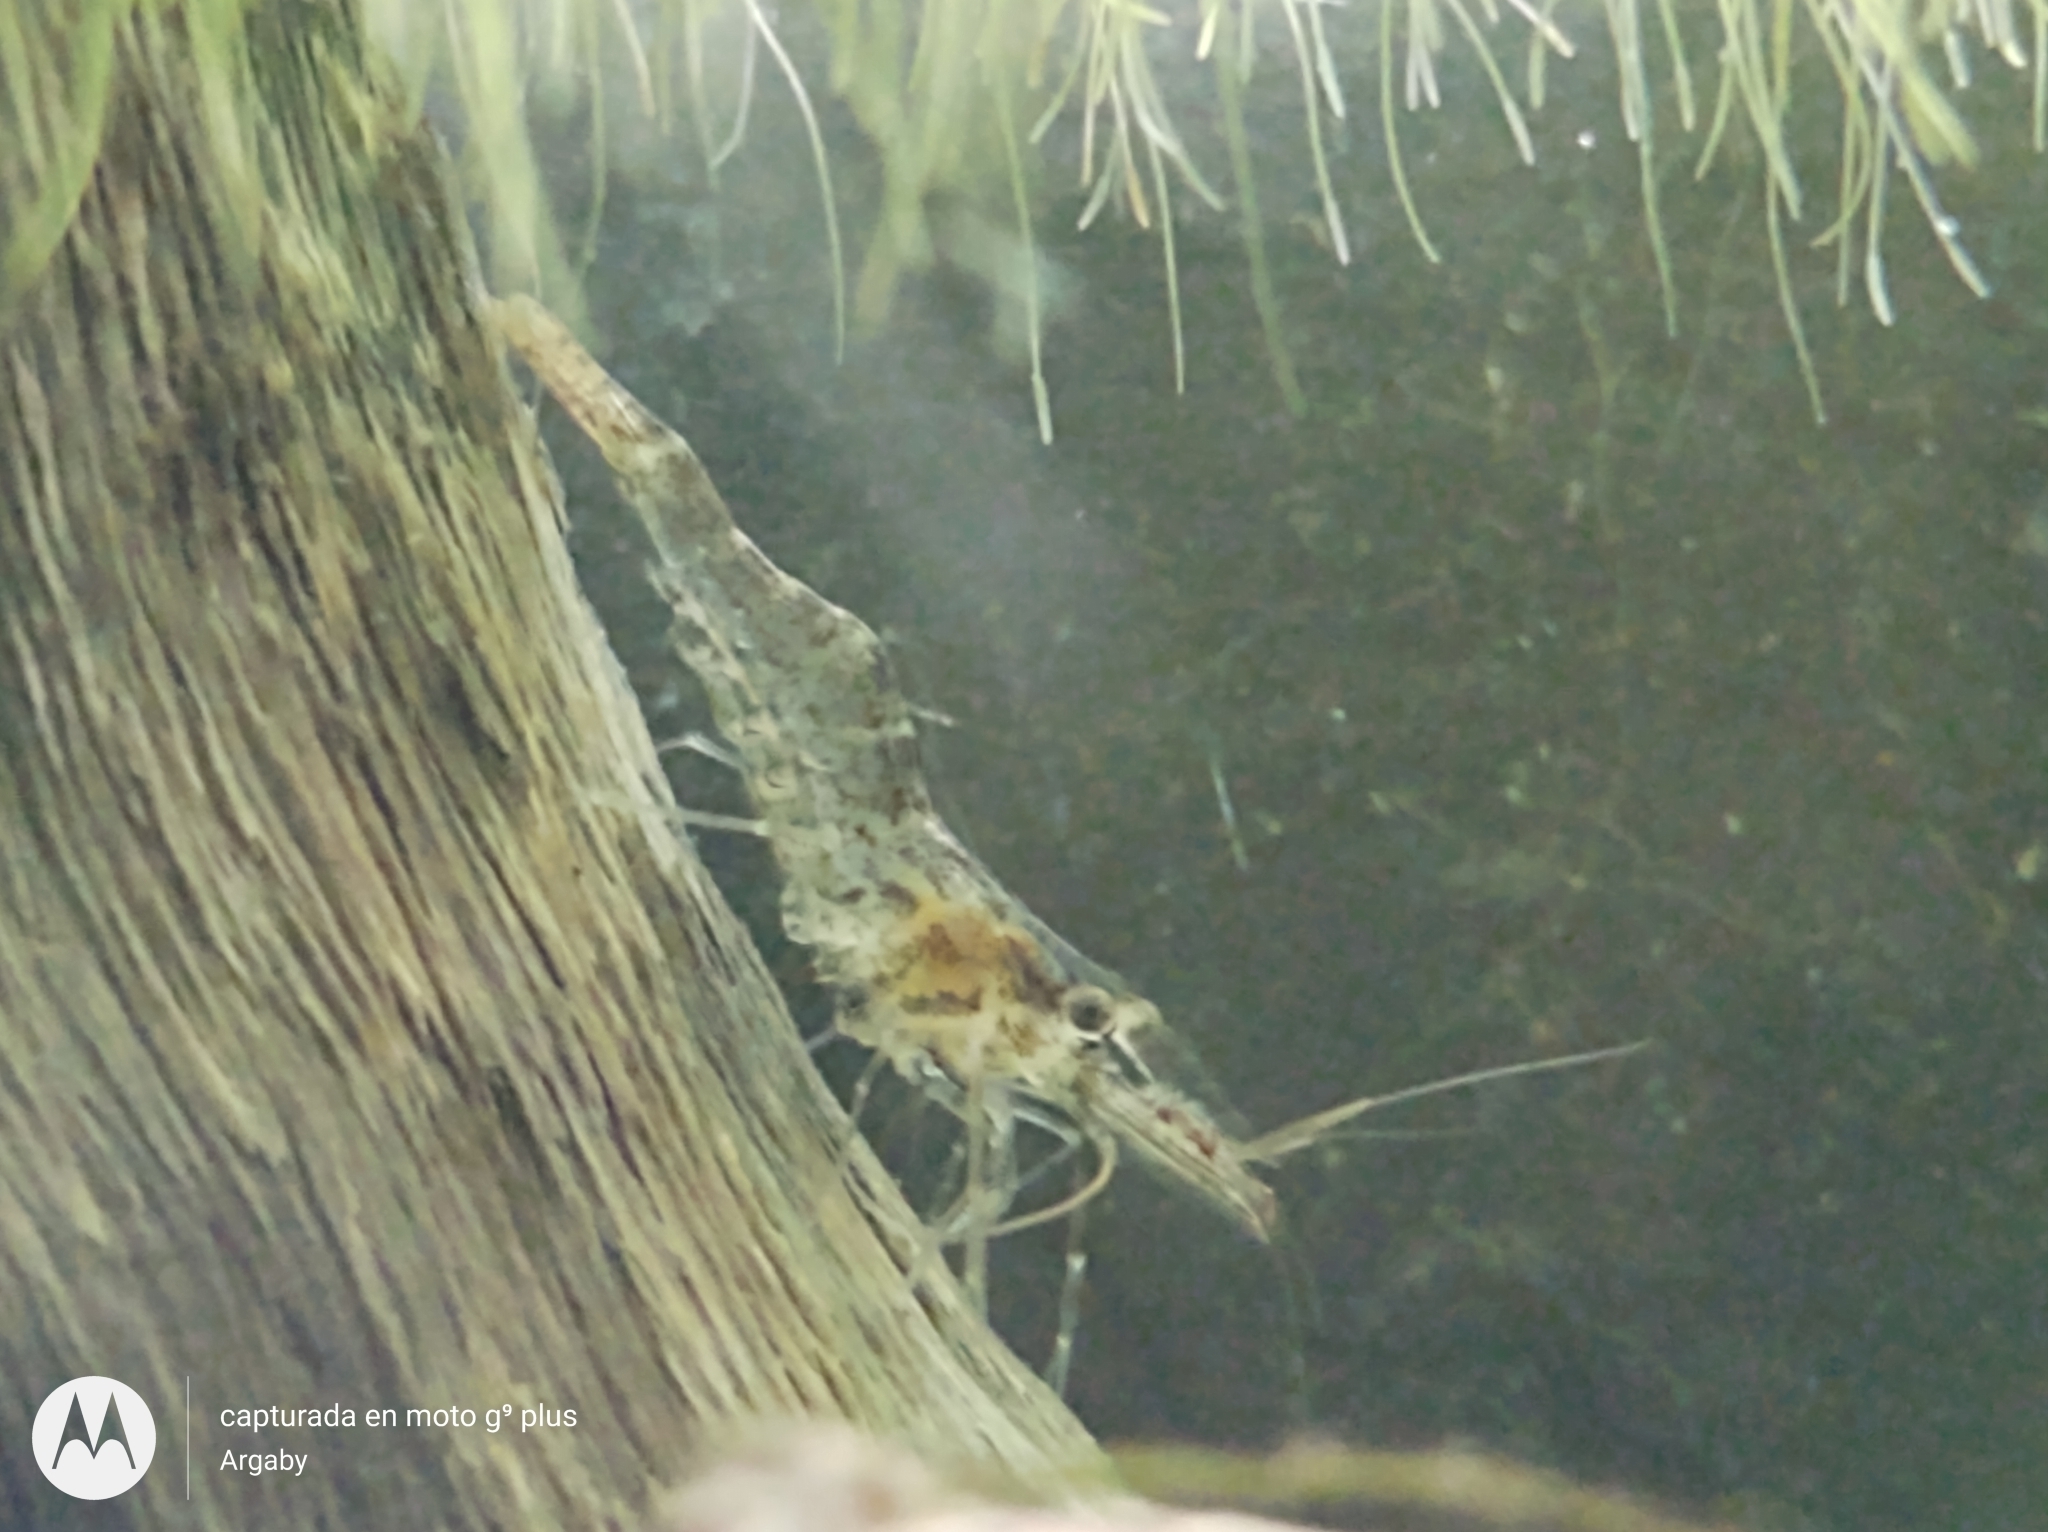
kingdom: Animalia
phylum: Arthropoda
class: Malacostraca
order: Decapoda
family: Palaemonidae
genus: Macrobrachium
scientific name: Macrobrachium borellii
